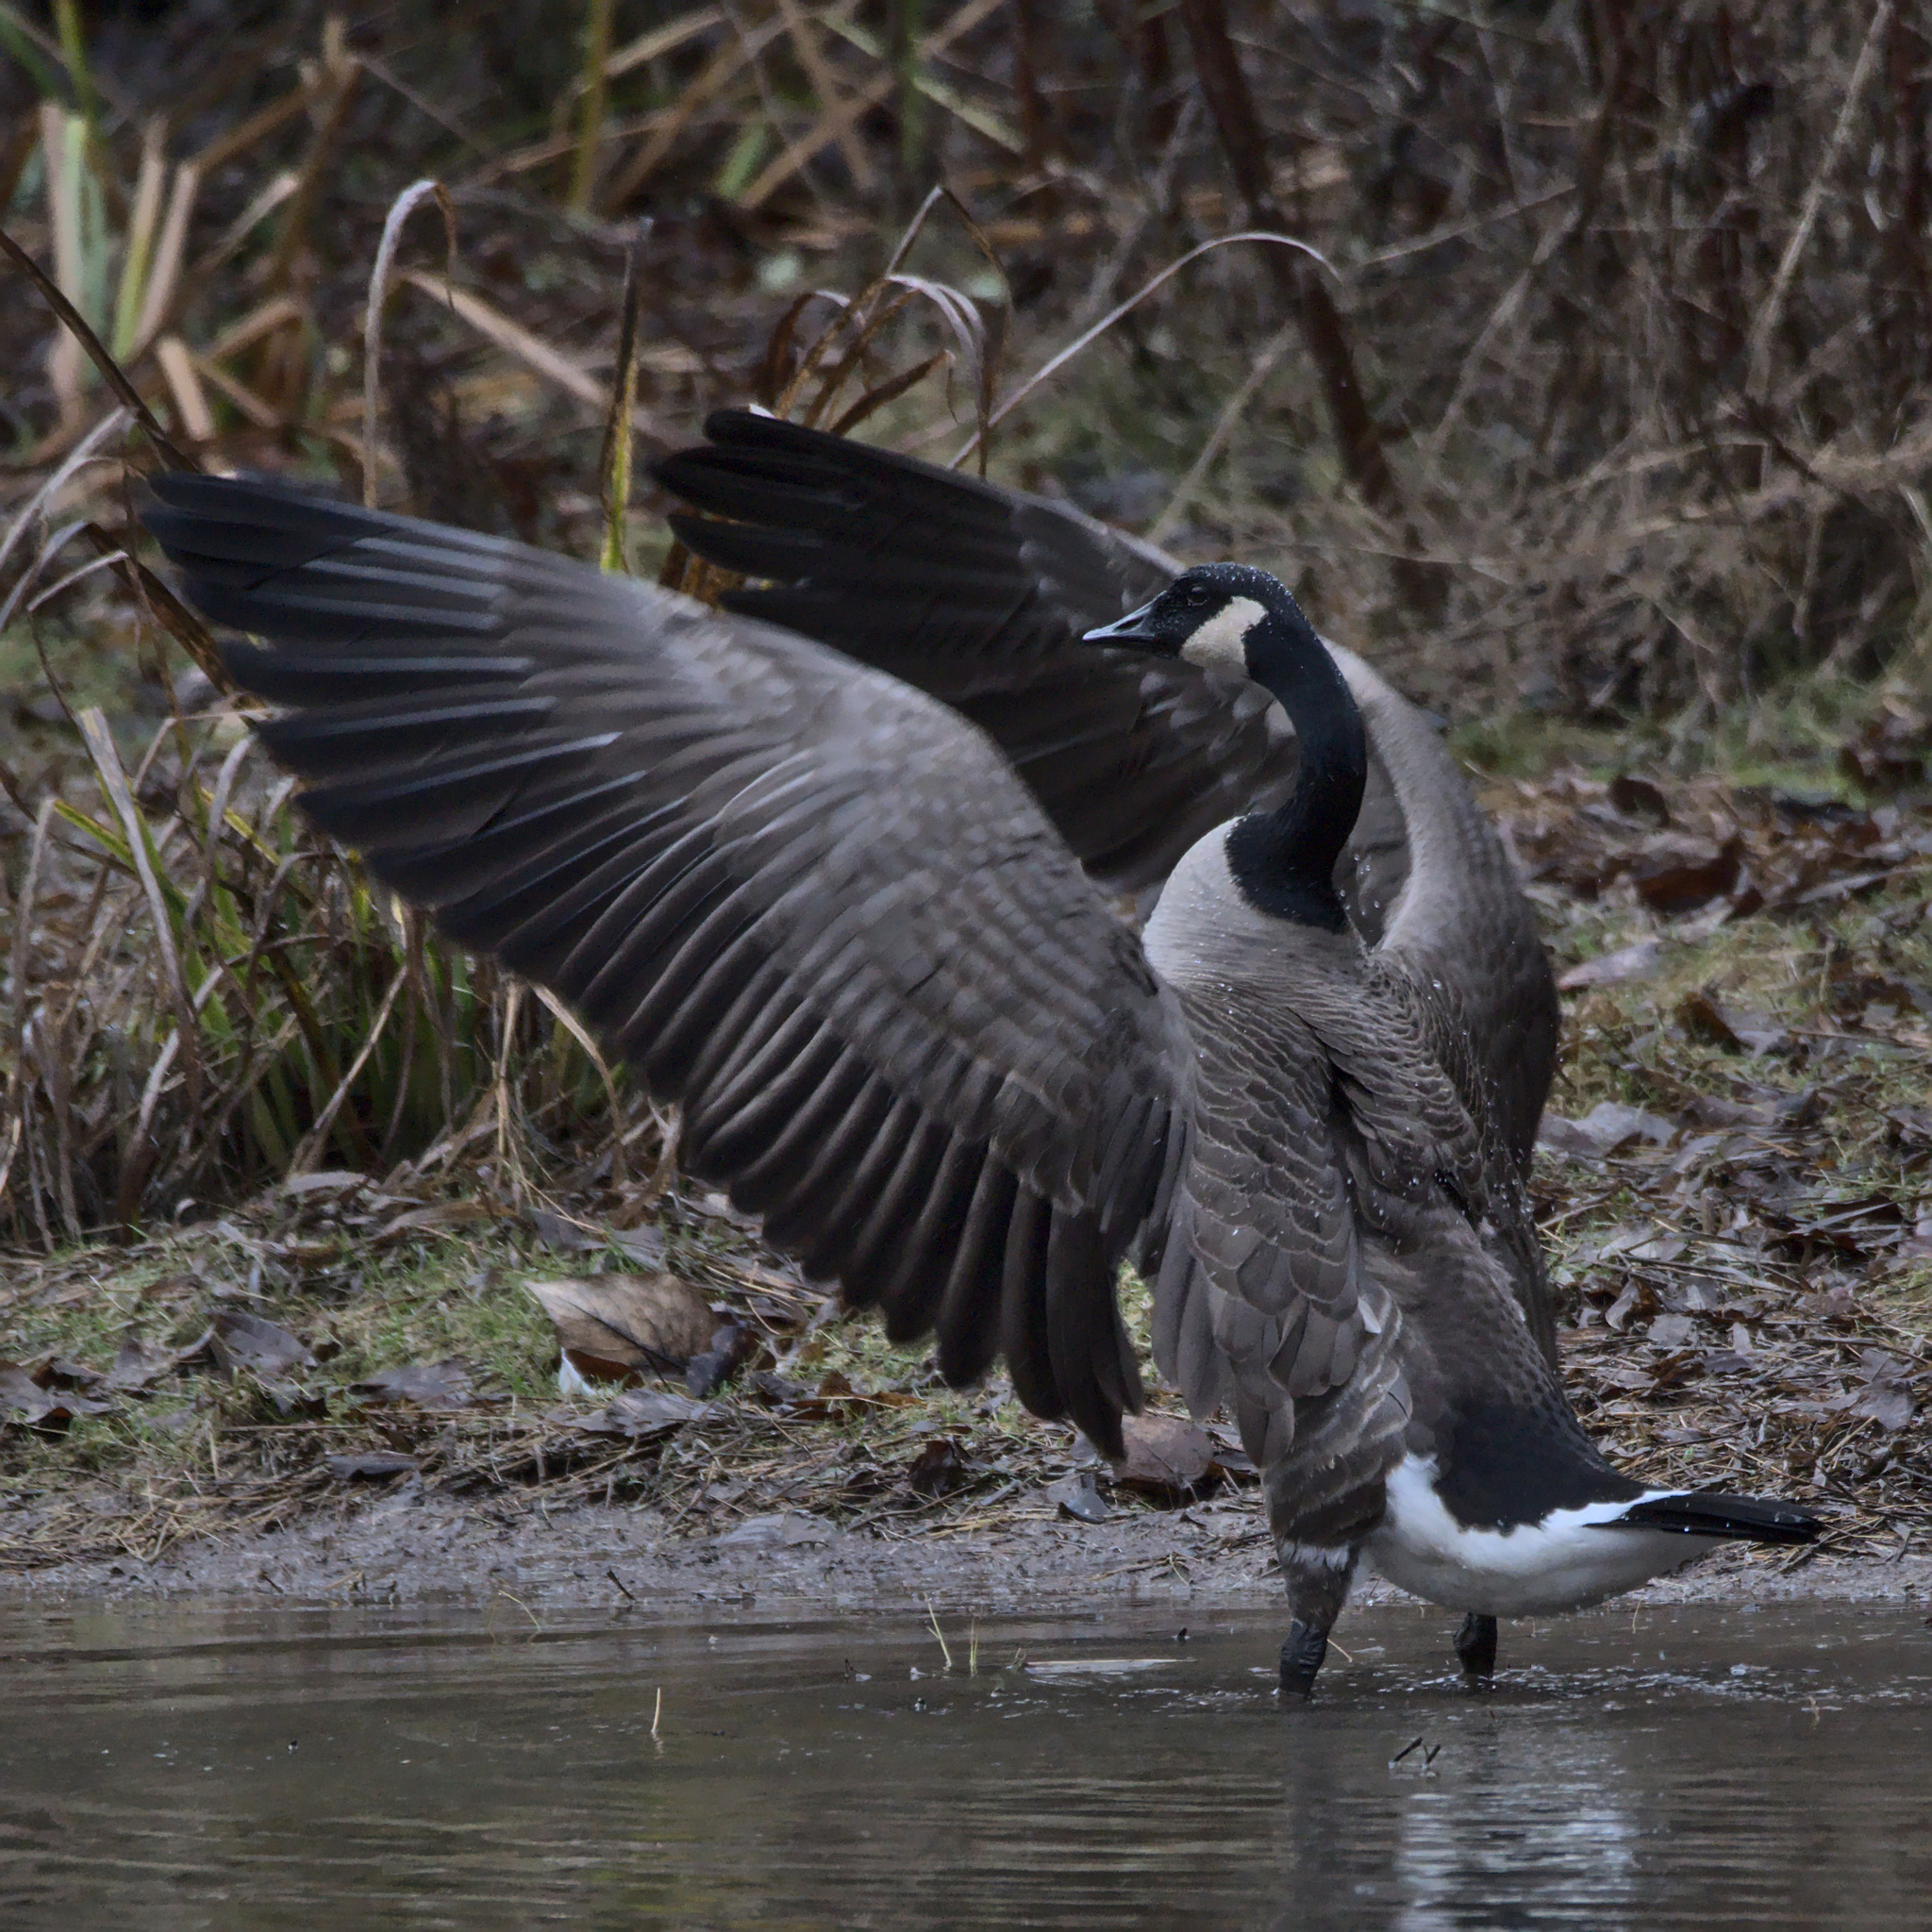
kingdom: Animalia
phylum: Chordata
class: Aves
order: Anseriformes
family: Anatidae
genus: Branta
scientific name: Branta canadensis
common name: Canada goose
